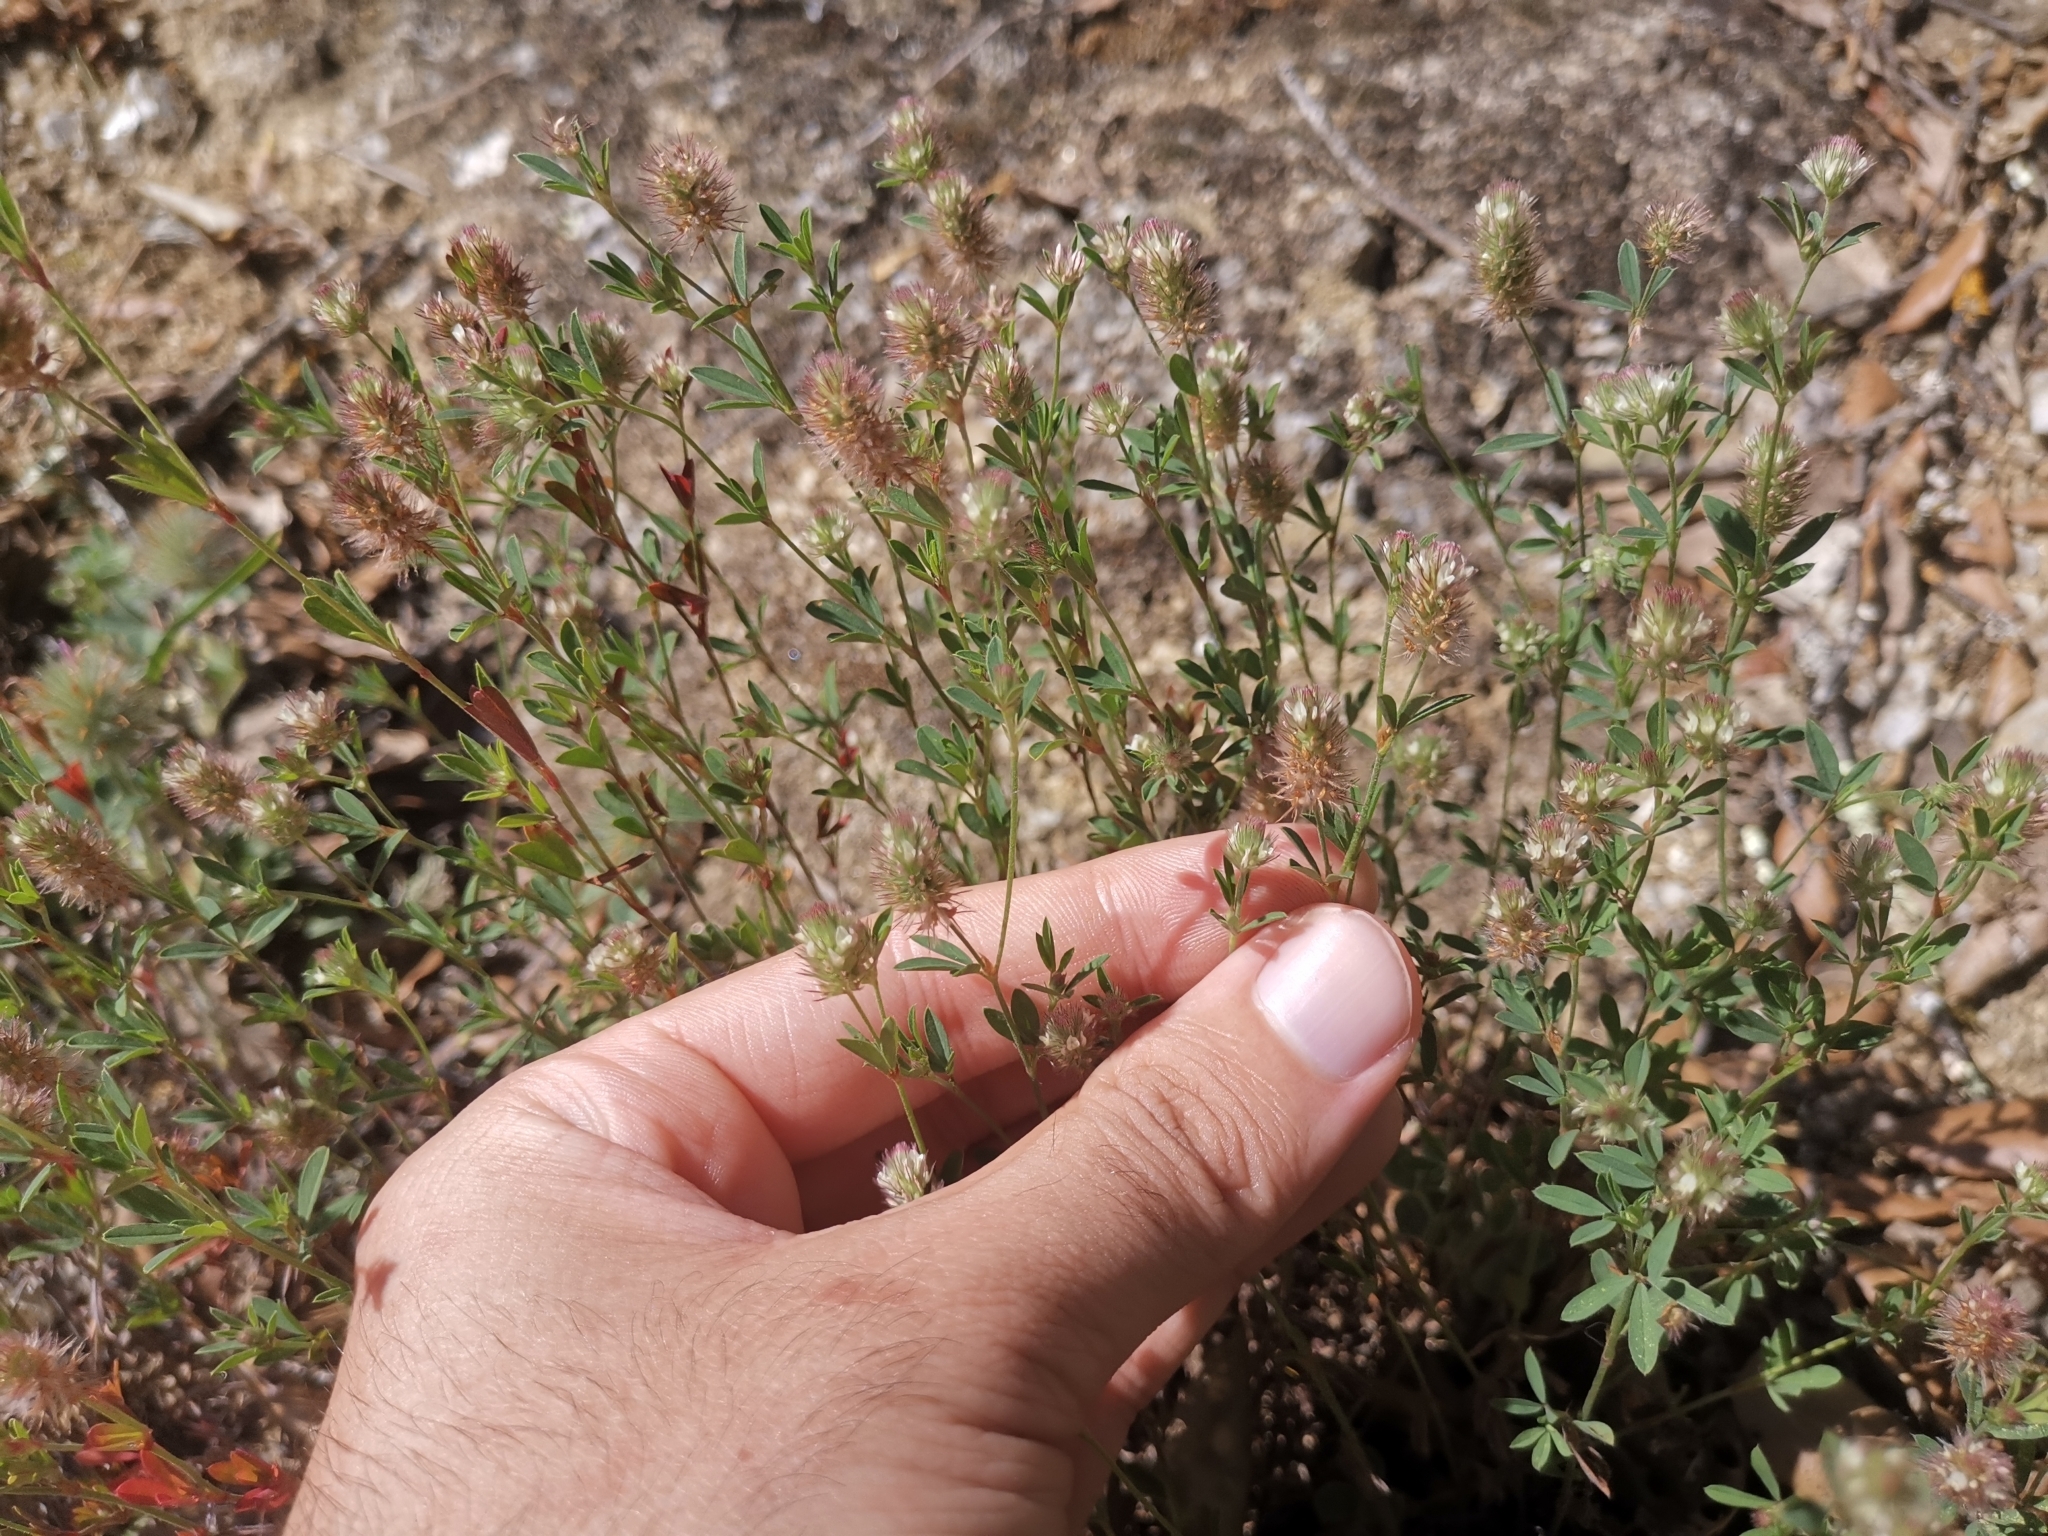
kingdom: Plantae
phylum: Tracheophyta
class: Magnoliopsida
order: Fabales
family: Fabaceae
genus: Trifolium
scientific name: Trifolium arvense
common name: Hare's-foot clover
